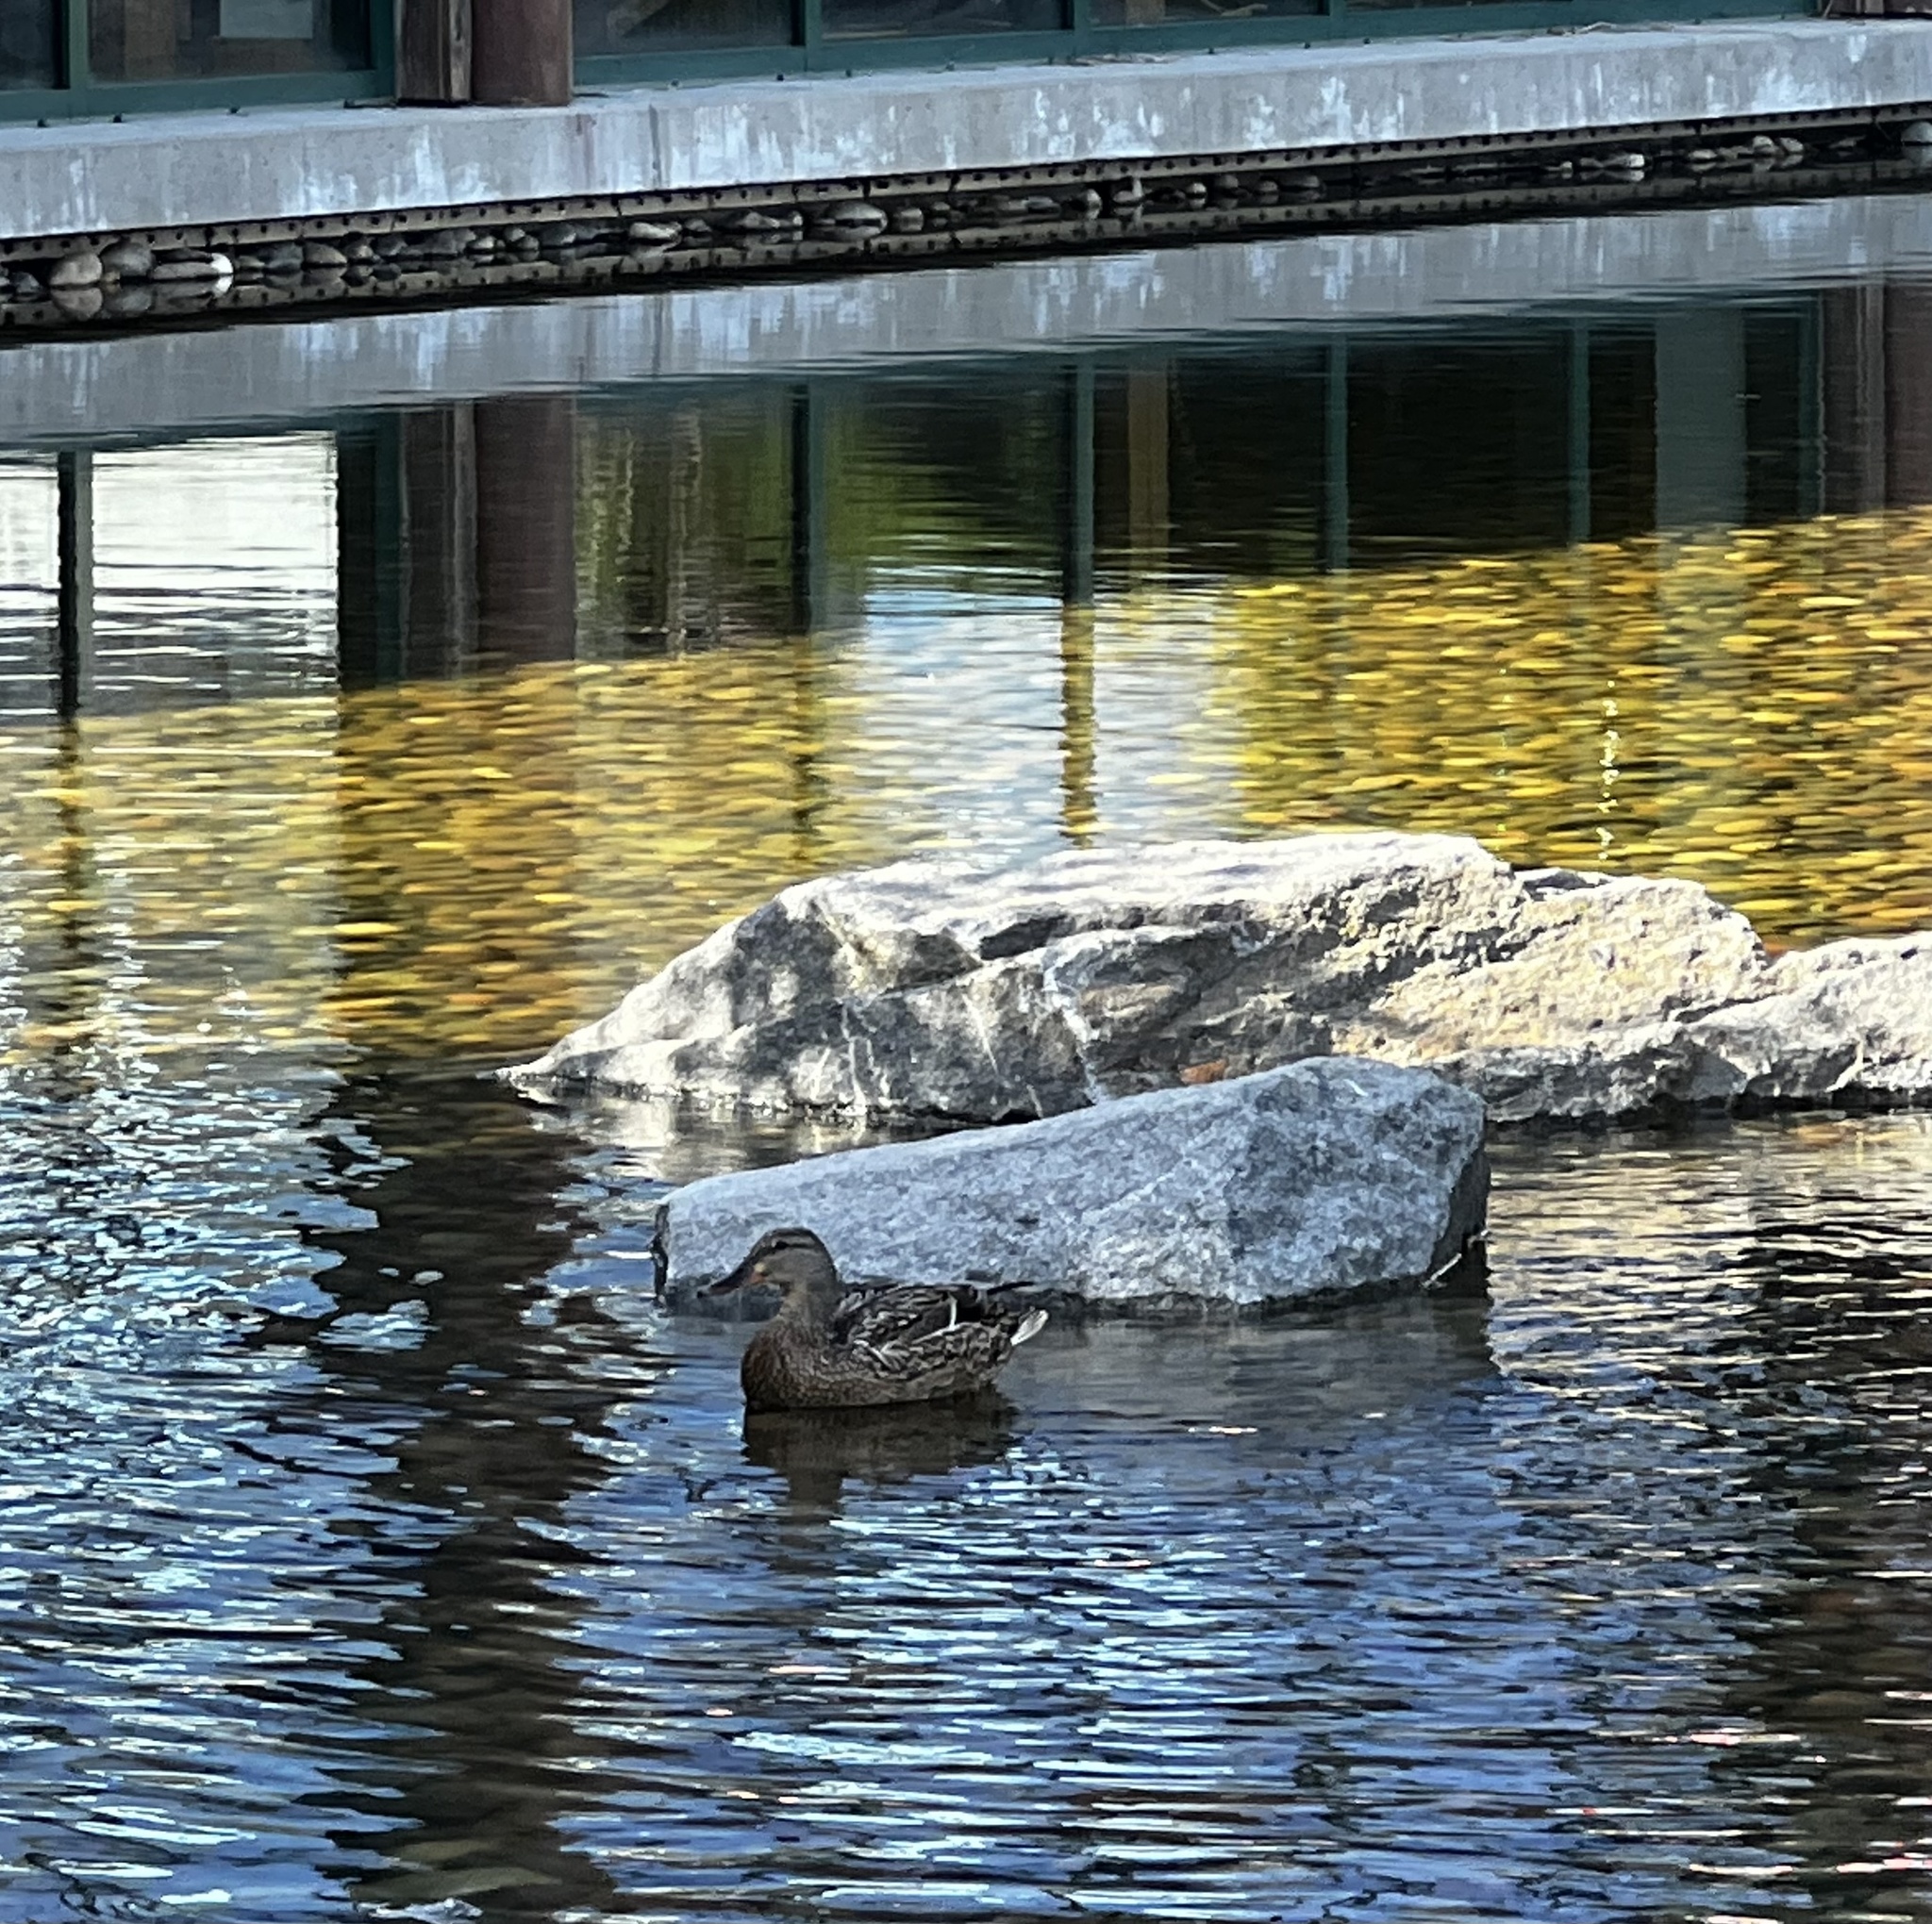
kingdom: Animalia
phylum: Chordata
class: Aves
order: Anseriformes
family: Anatidae
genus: Anas
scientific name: Anas platyrhynchos
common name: Mallard
